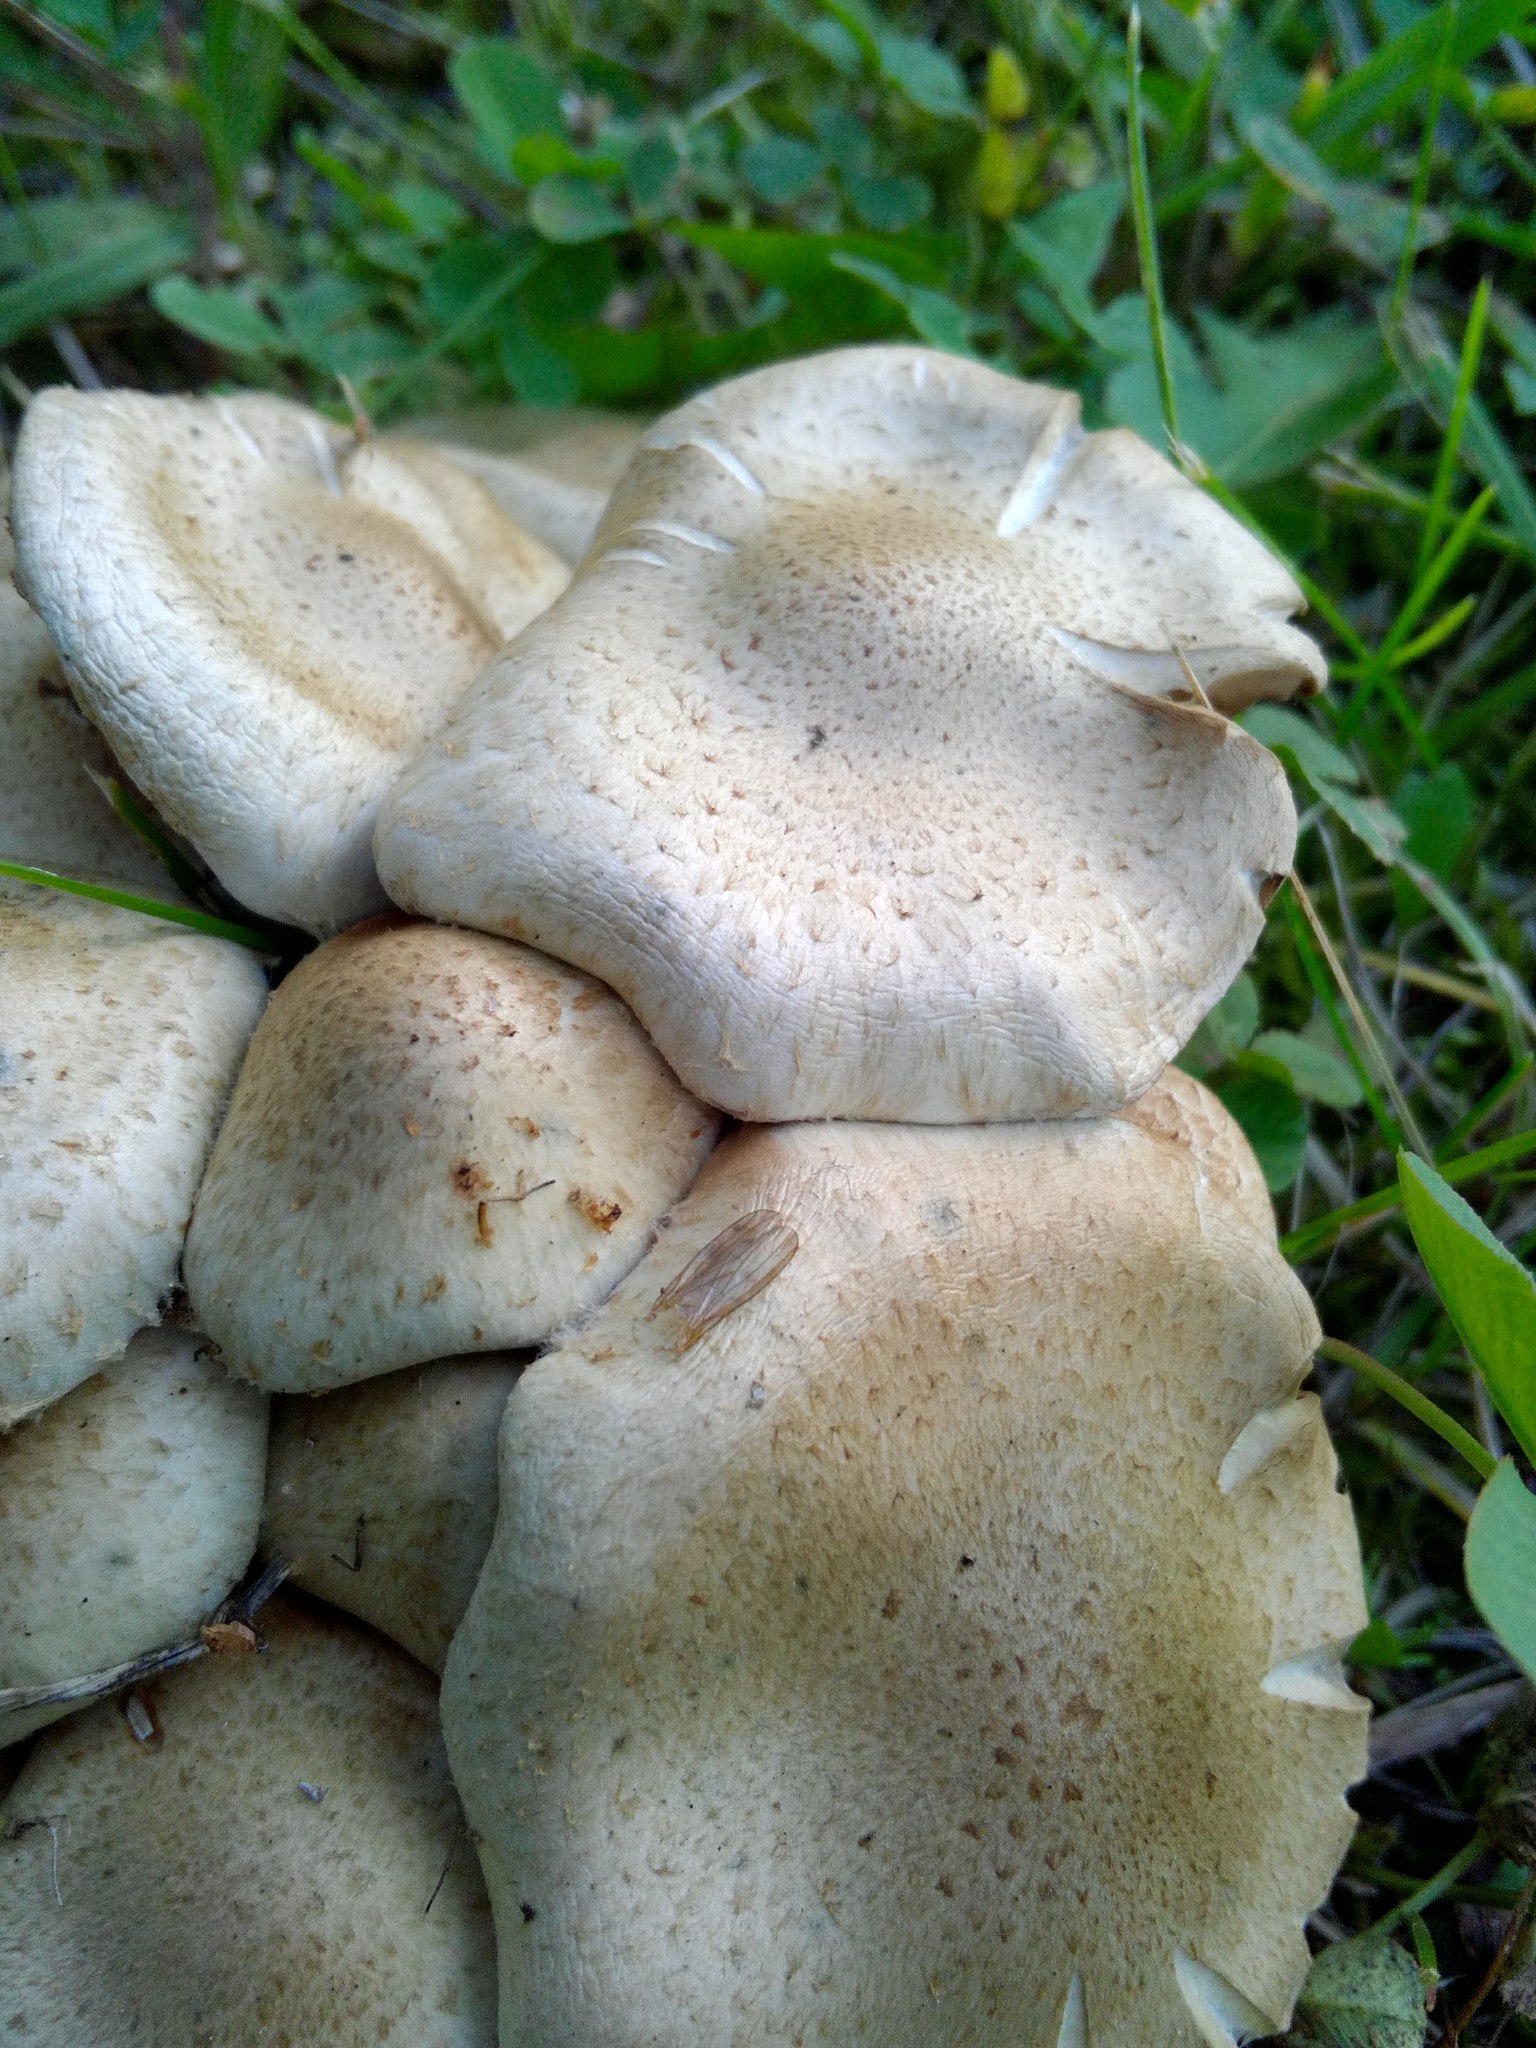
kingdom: Fungi
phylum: Basidiomycota
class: Agaricomycetes
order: Agaricales
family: Strophariaceae
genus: Pholiota
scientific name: Pholiota gummosa
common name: Sticky scalycap
